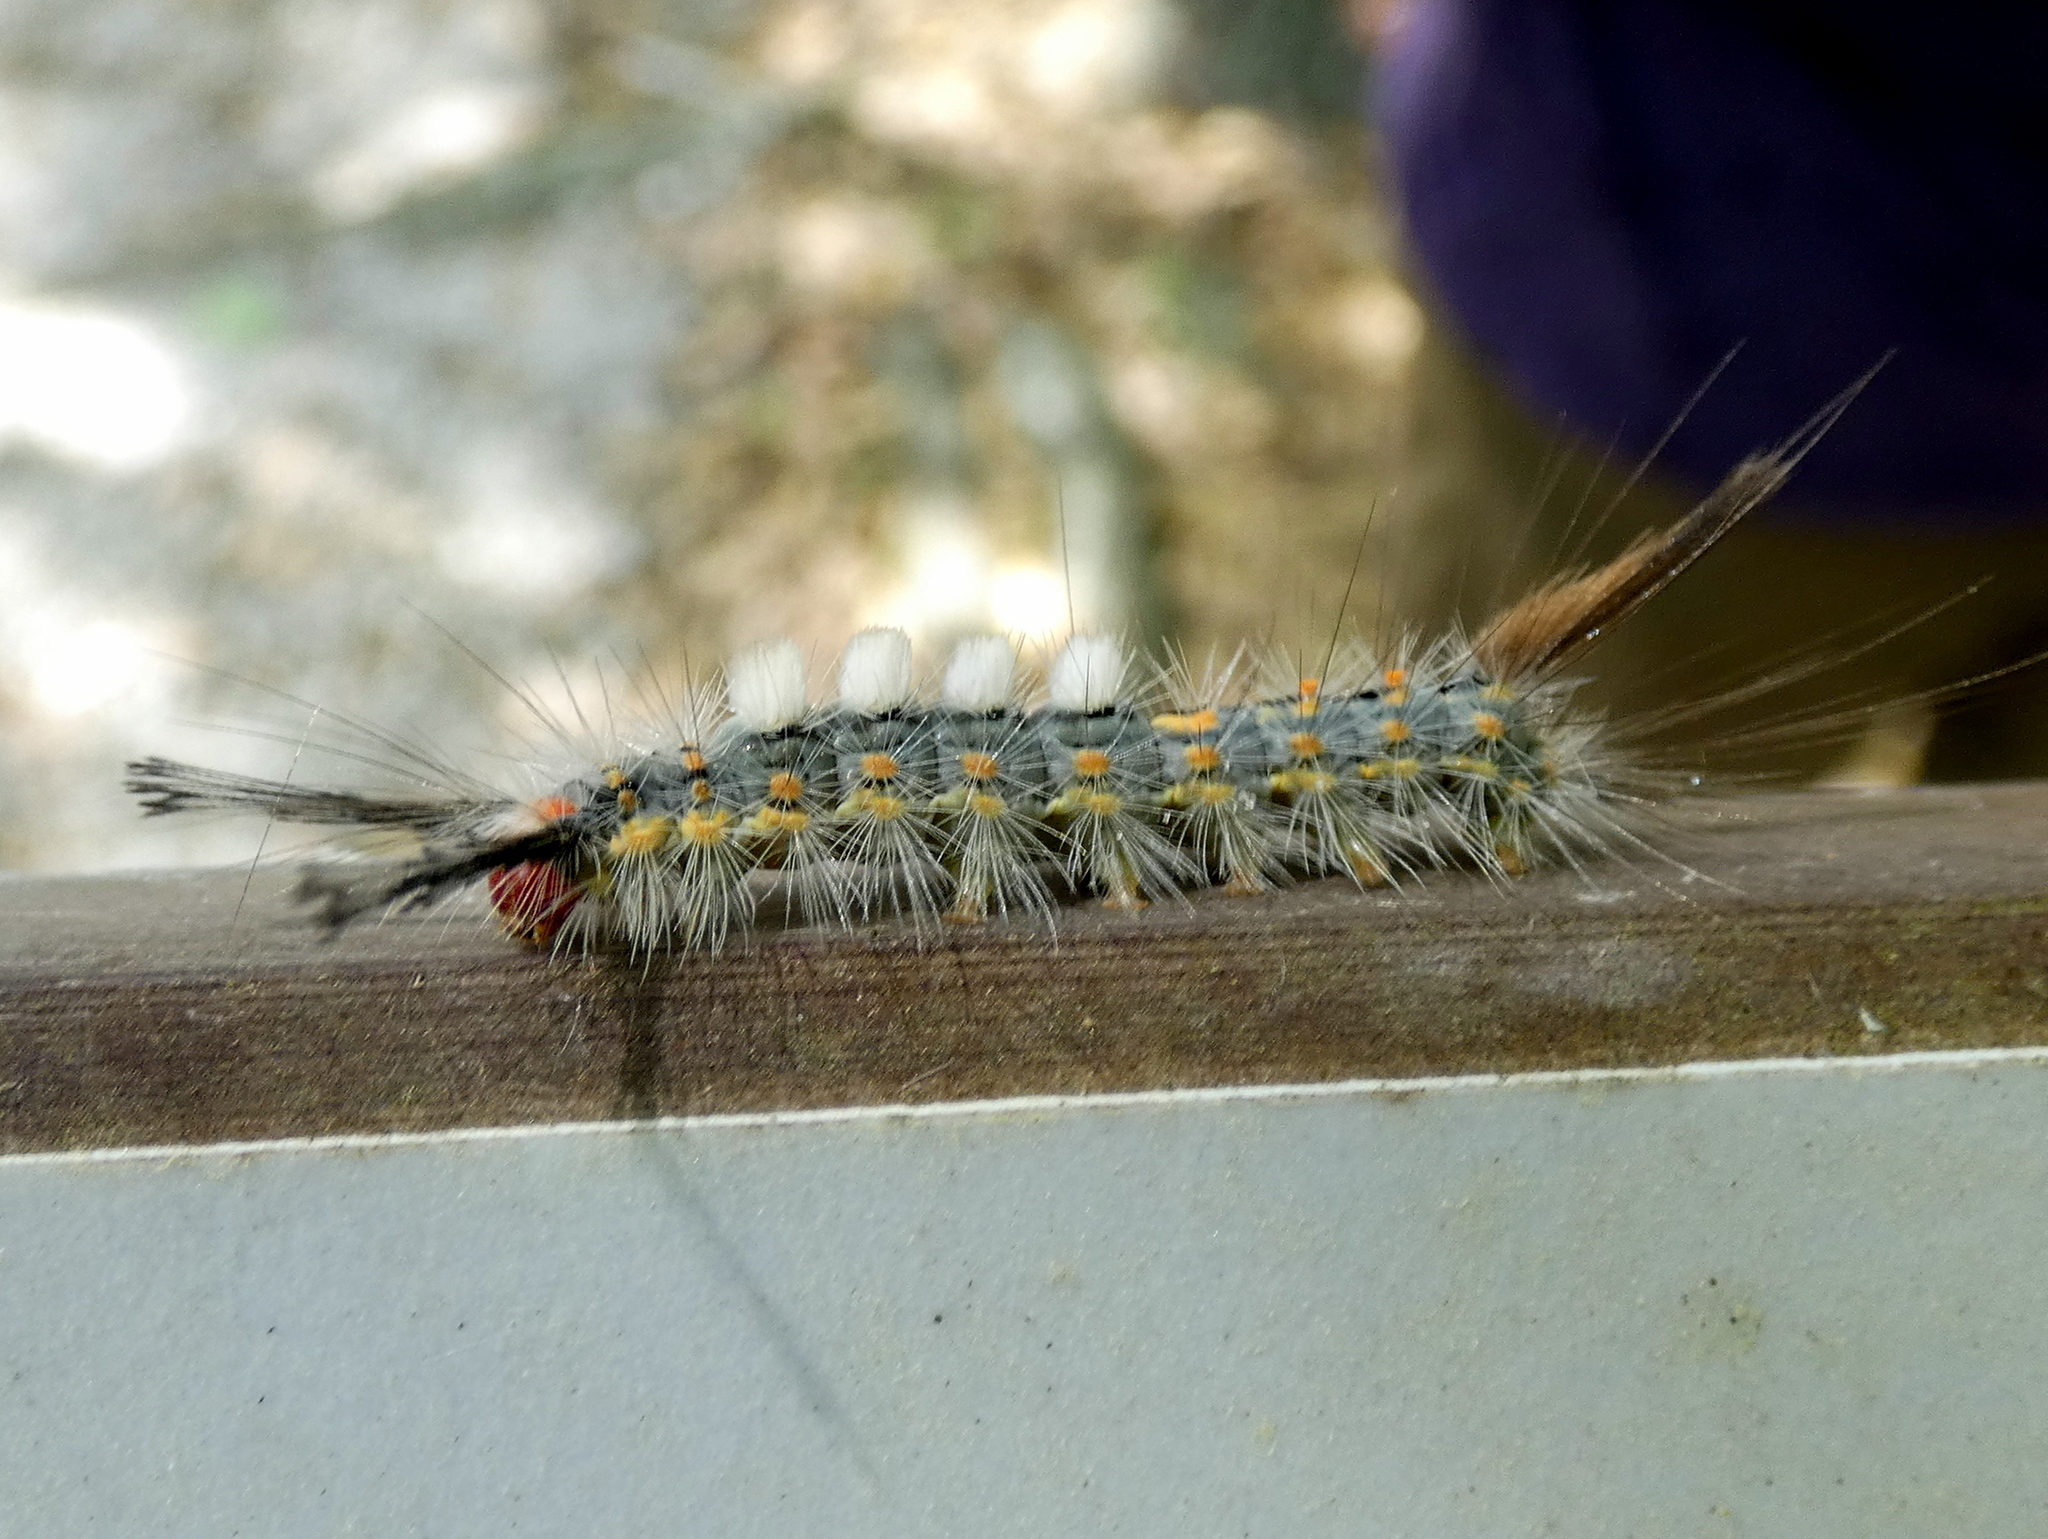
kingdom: Animalia
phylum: Arthropoda
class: Insecta
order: Lepidoptera
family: Erebidae
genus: Orgyia
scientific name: Orgyia detrita
